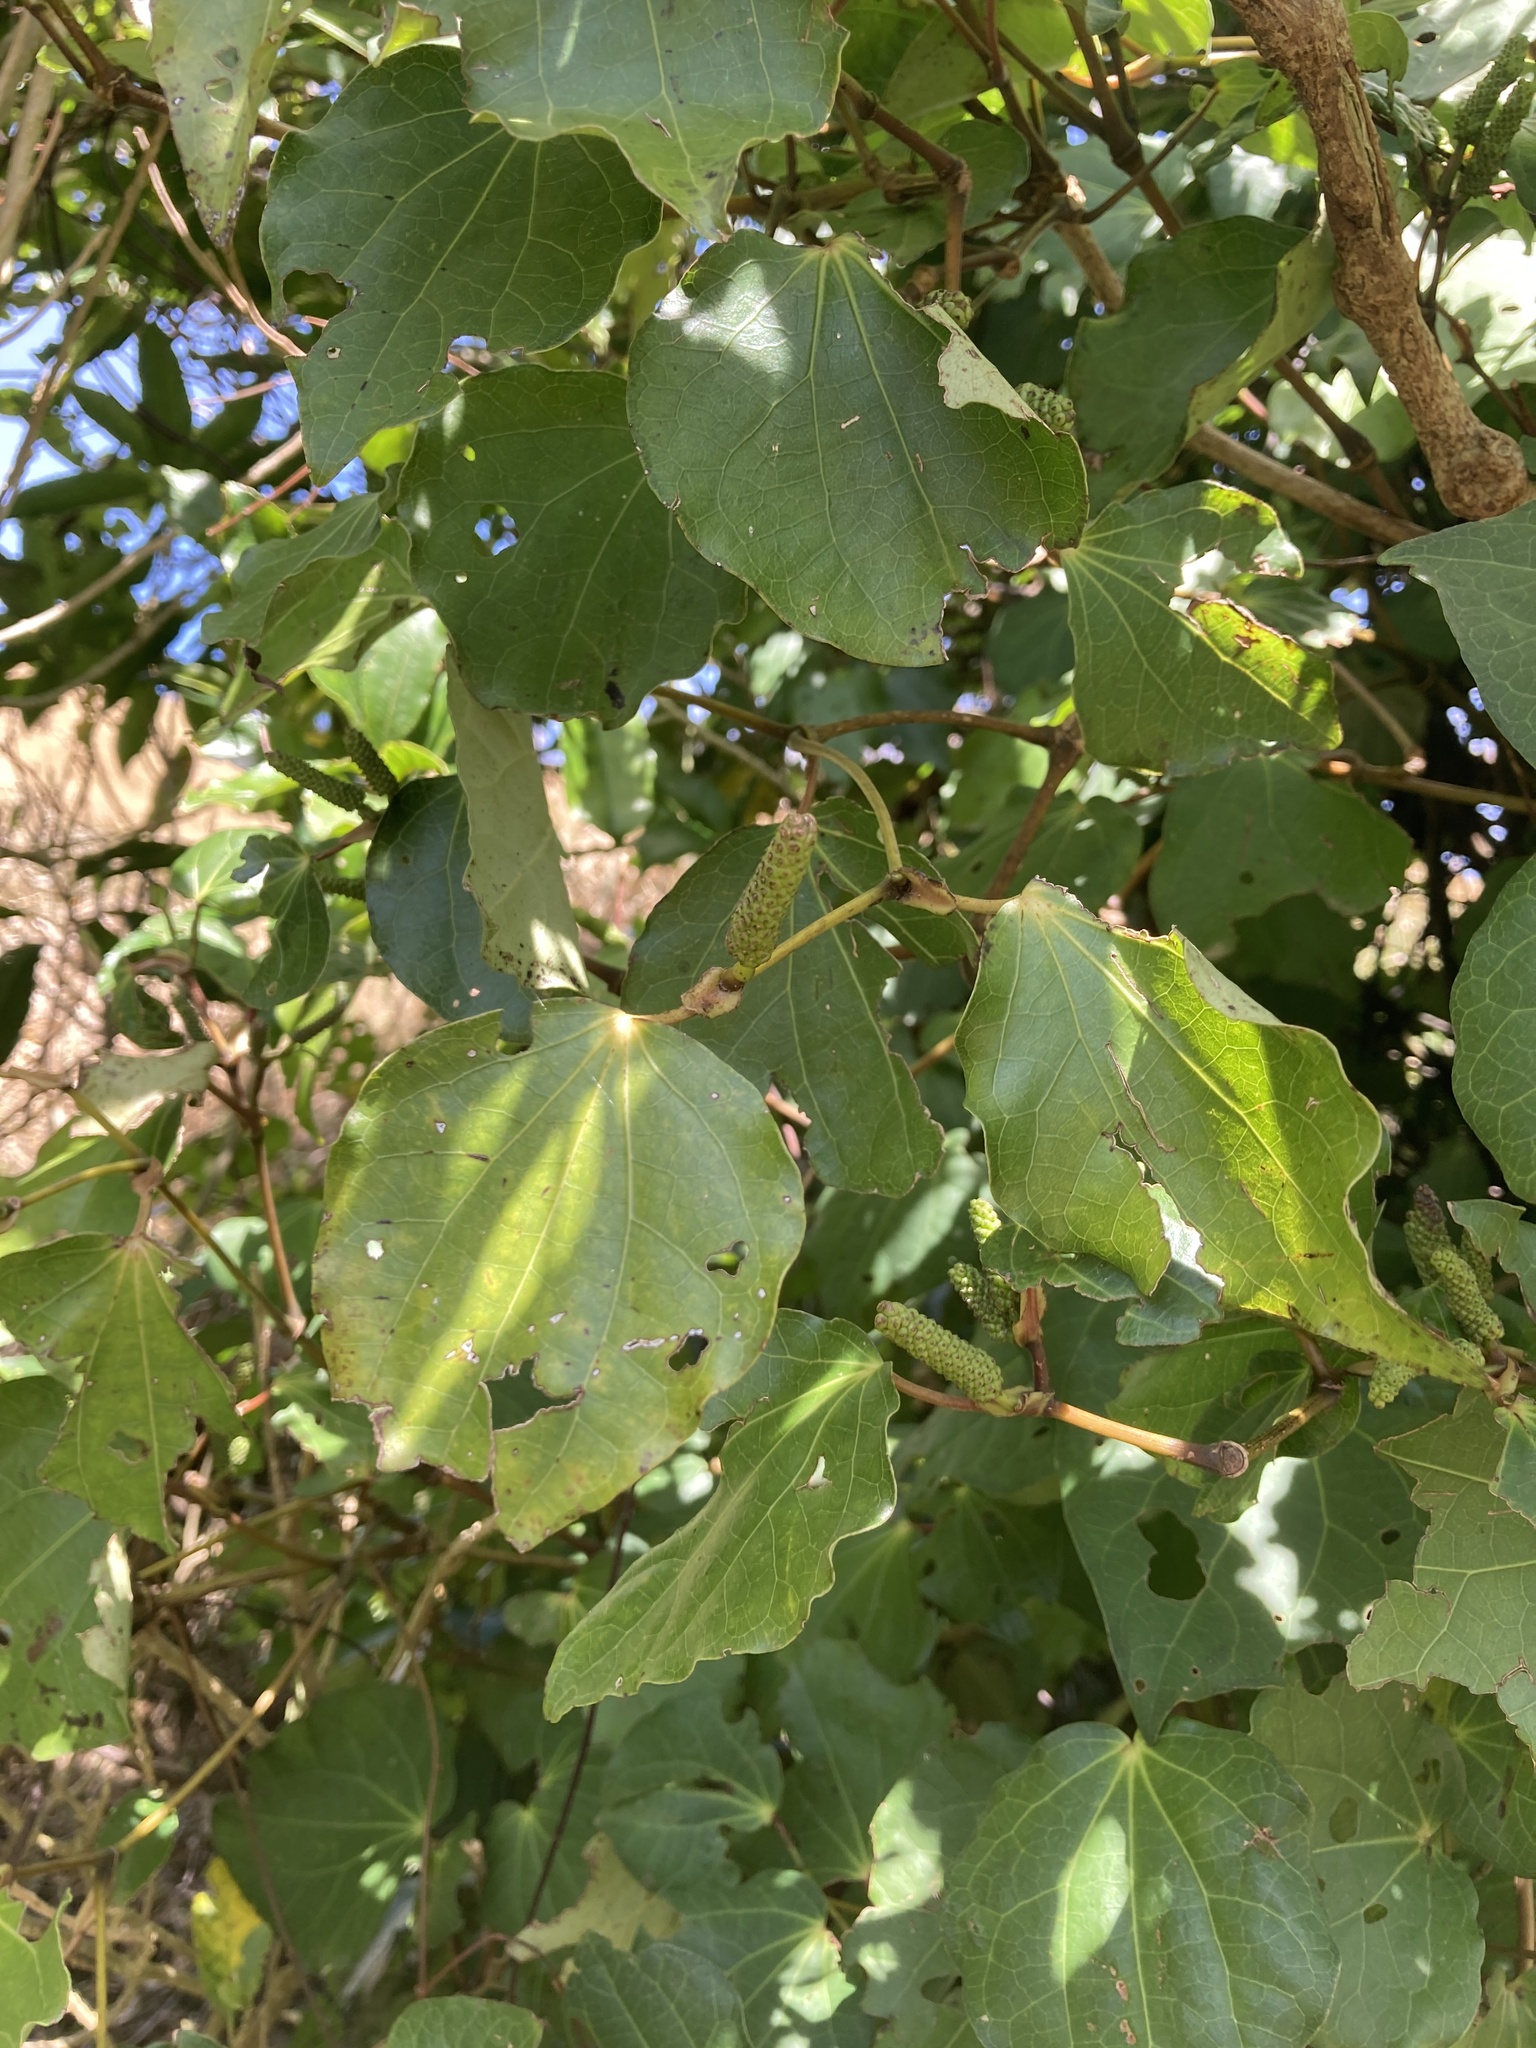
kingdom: Plantae
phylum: Tracheophyta
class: Magnoliopsida
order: Piperales
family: Piperaceae
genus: Macropiper
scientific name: Macropiper excelsum
